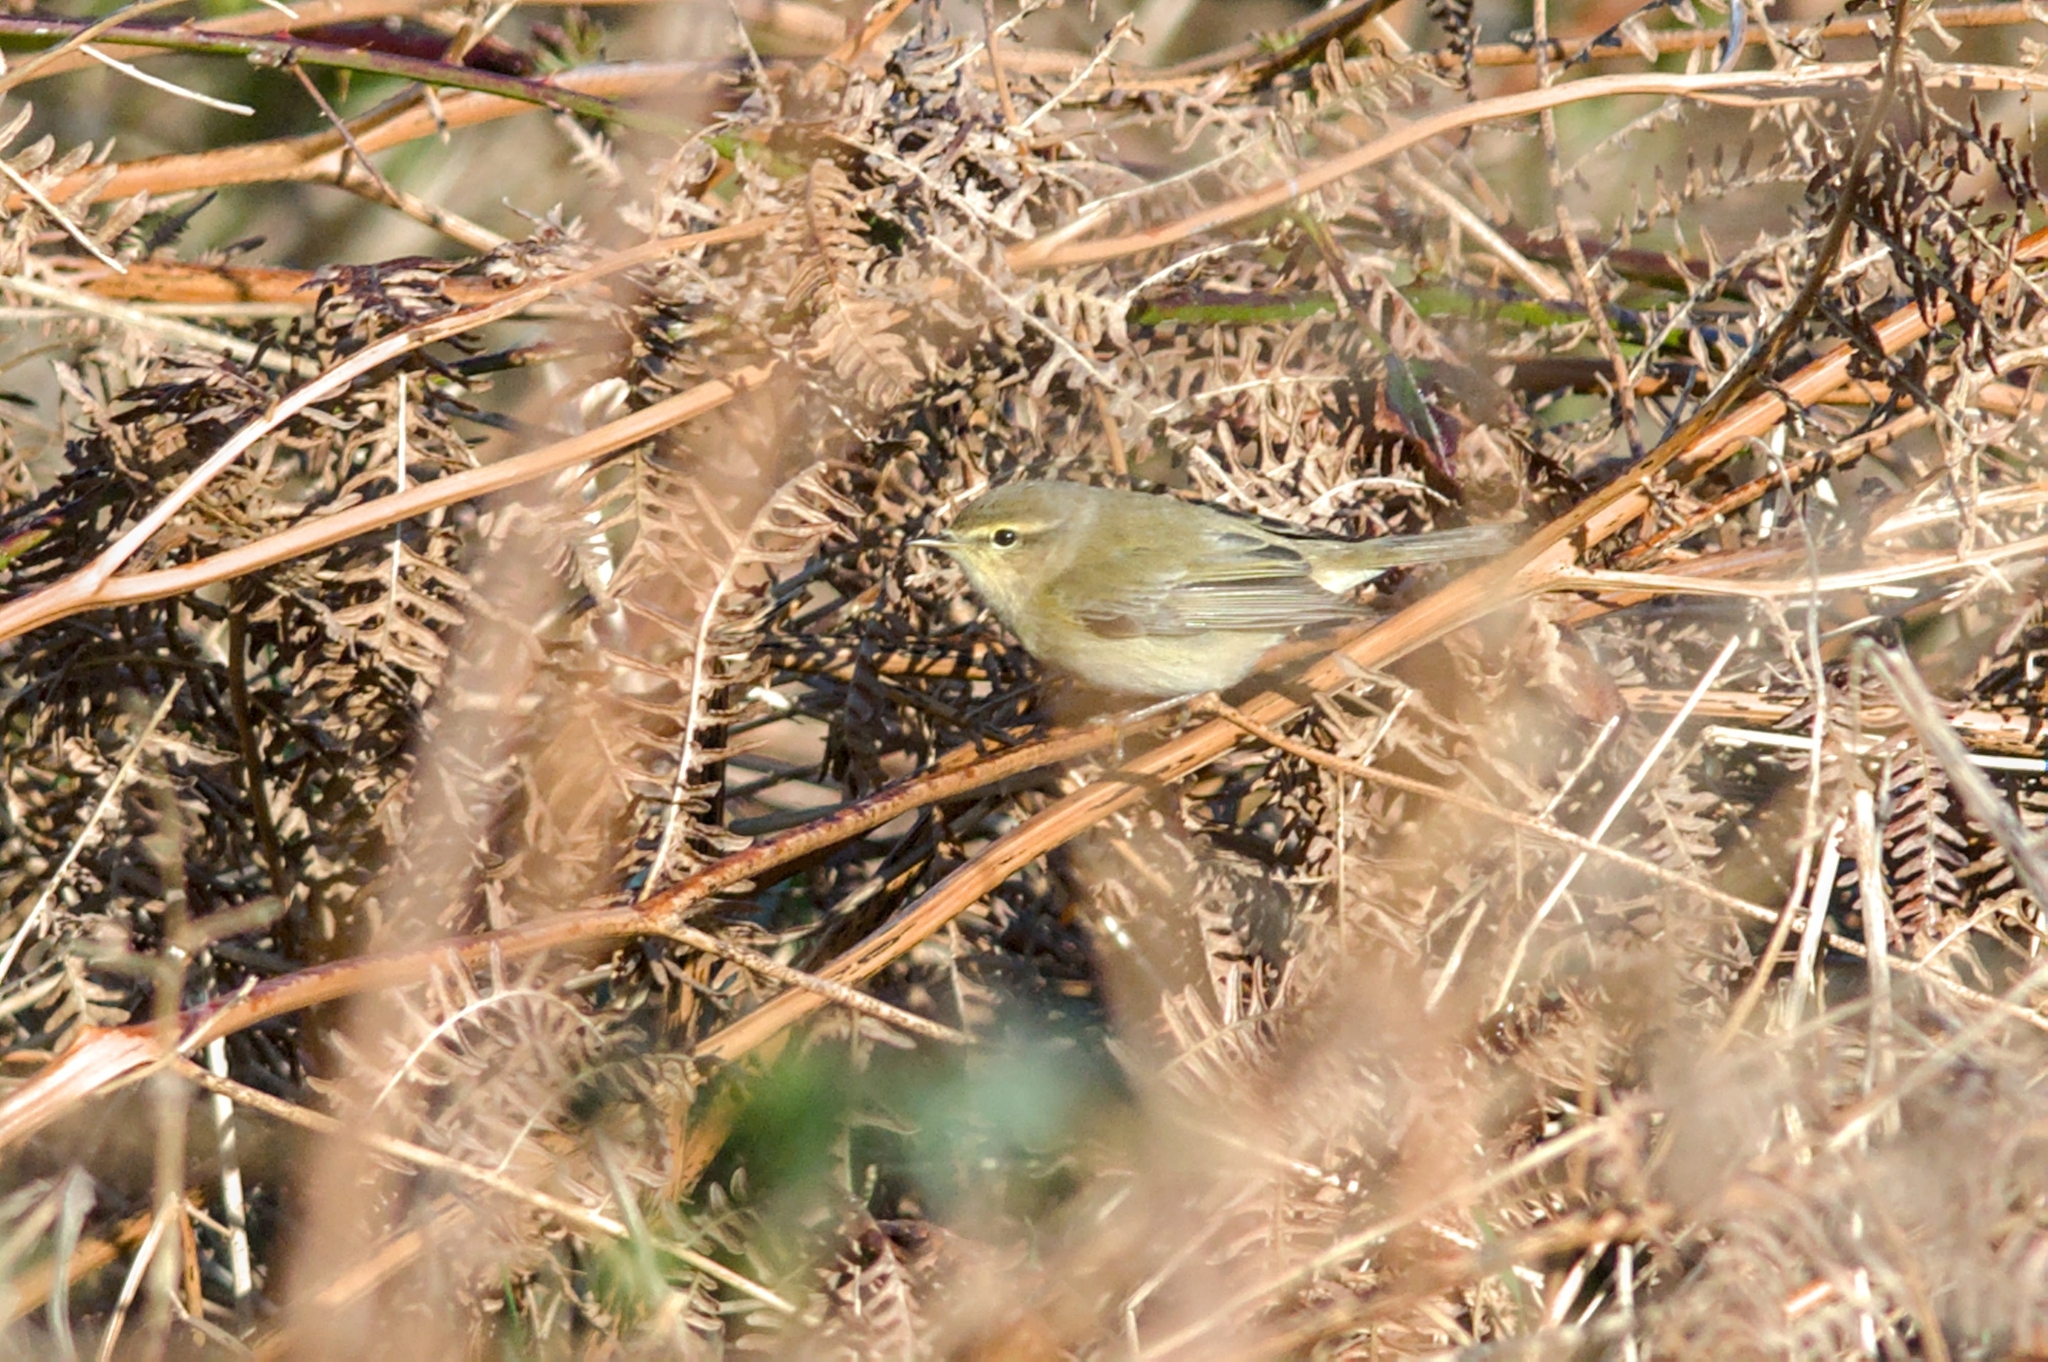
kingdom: Animalia
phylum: Chordata
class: Aves
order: Passeriformes
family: Phylloscopidae
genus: Phylloscopus
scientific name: Phylloscopus collybita
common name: Common chiffchaff
